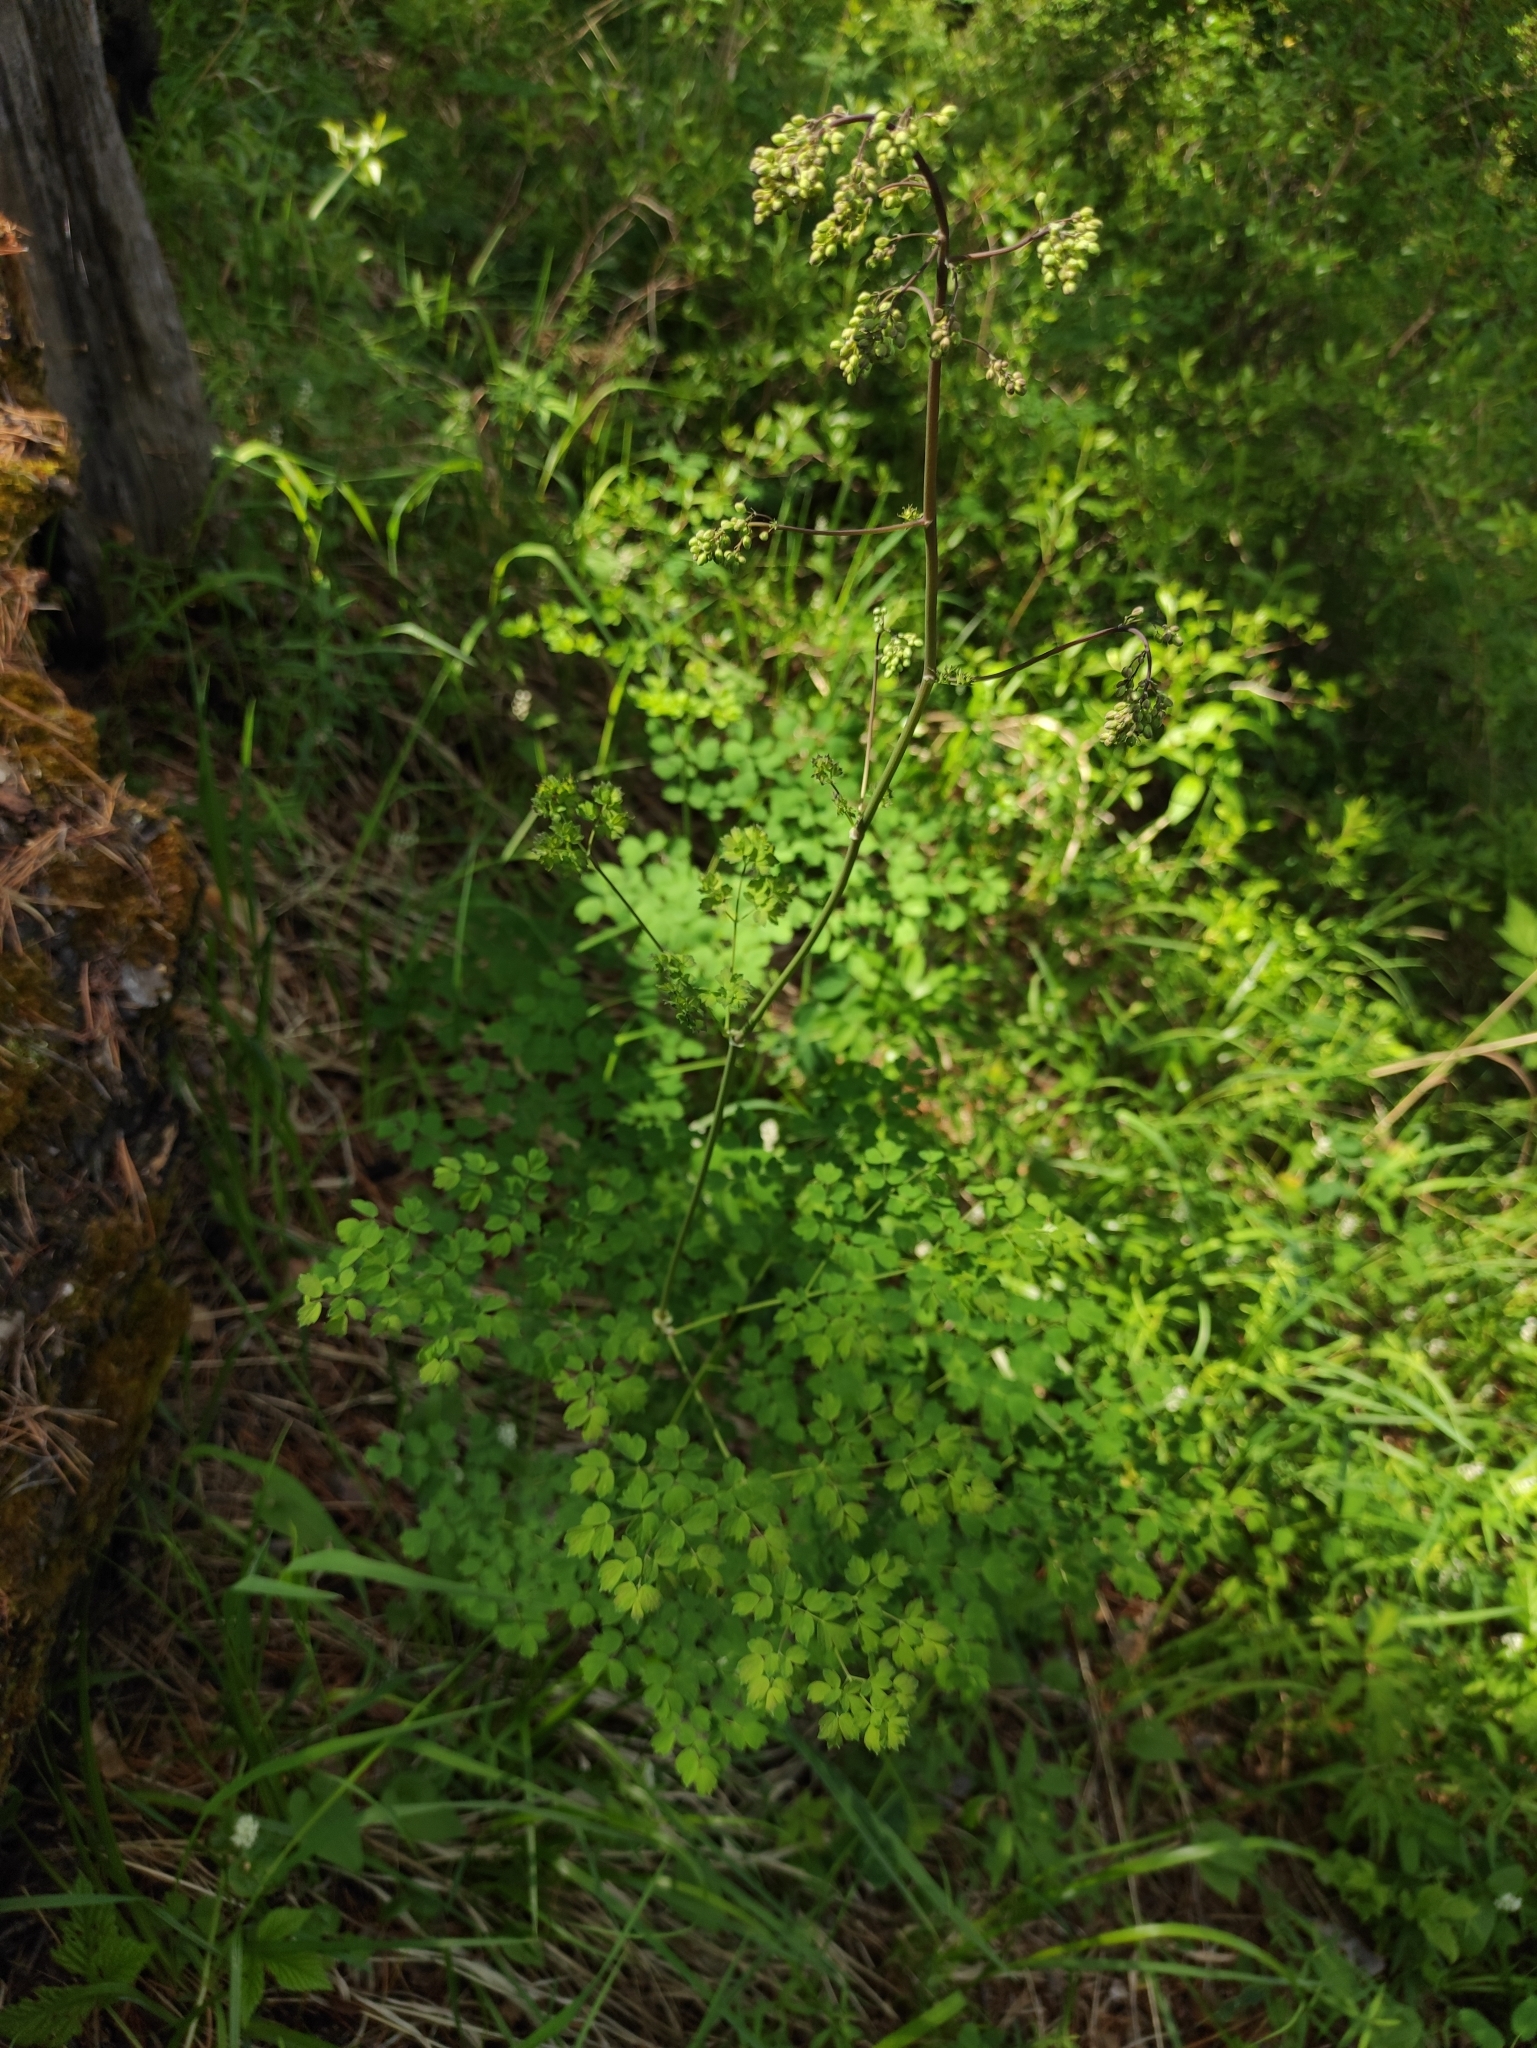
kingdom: Plantae
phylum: Tracheophyta
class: Magnoliopsida
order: Ranunculales
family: Ranunculaceae
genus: Thalictrum
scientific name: Thalictrum foetidum
